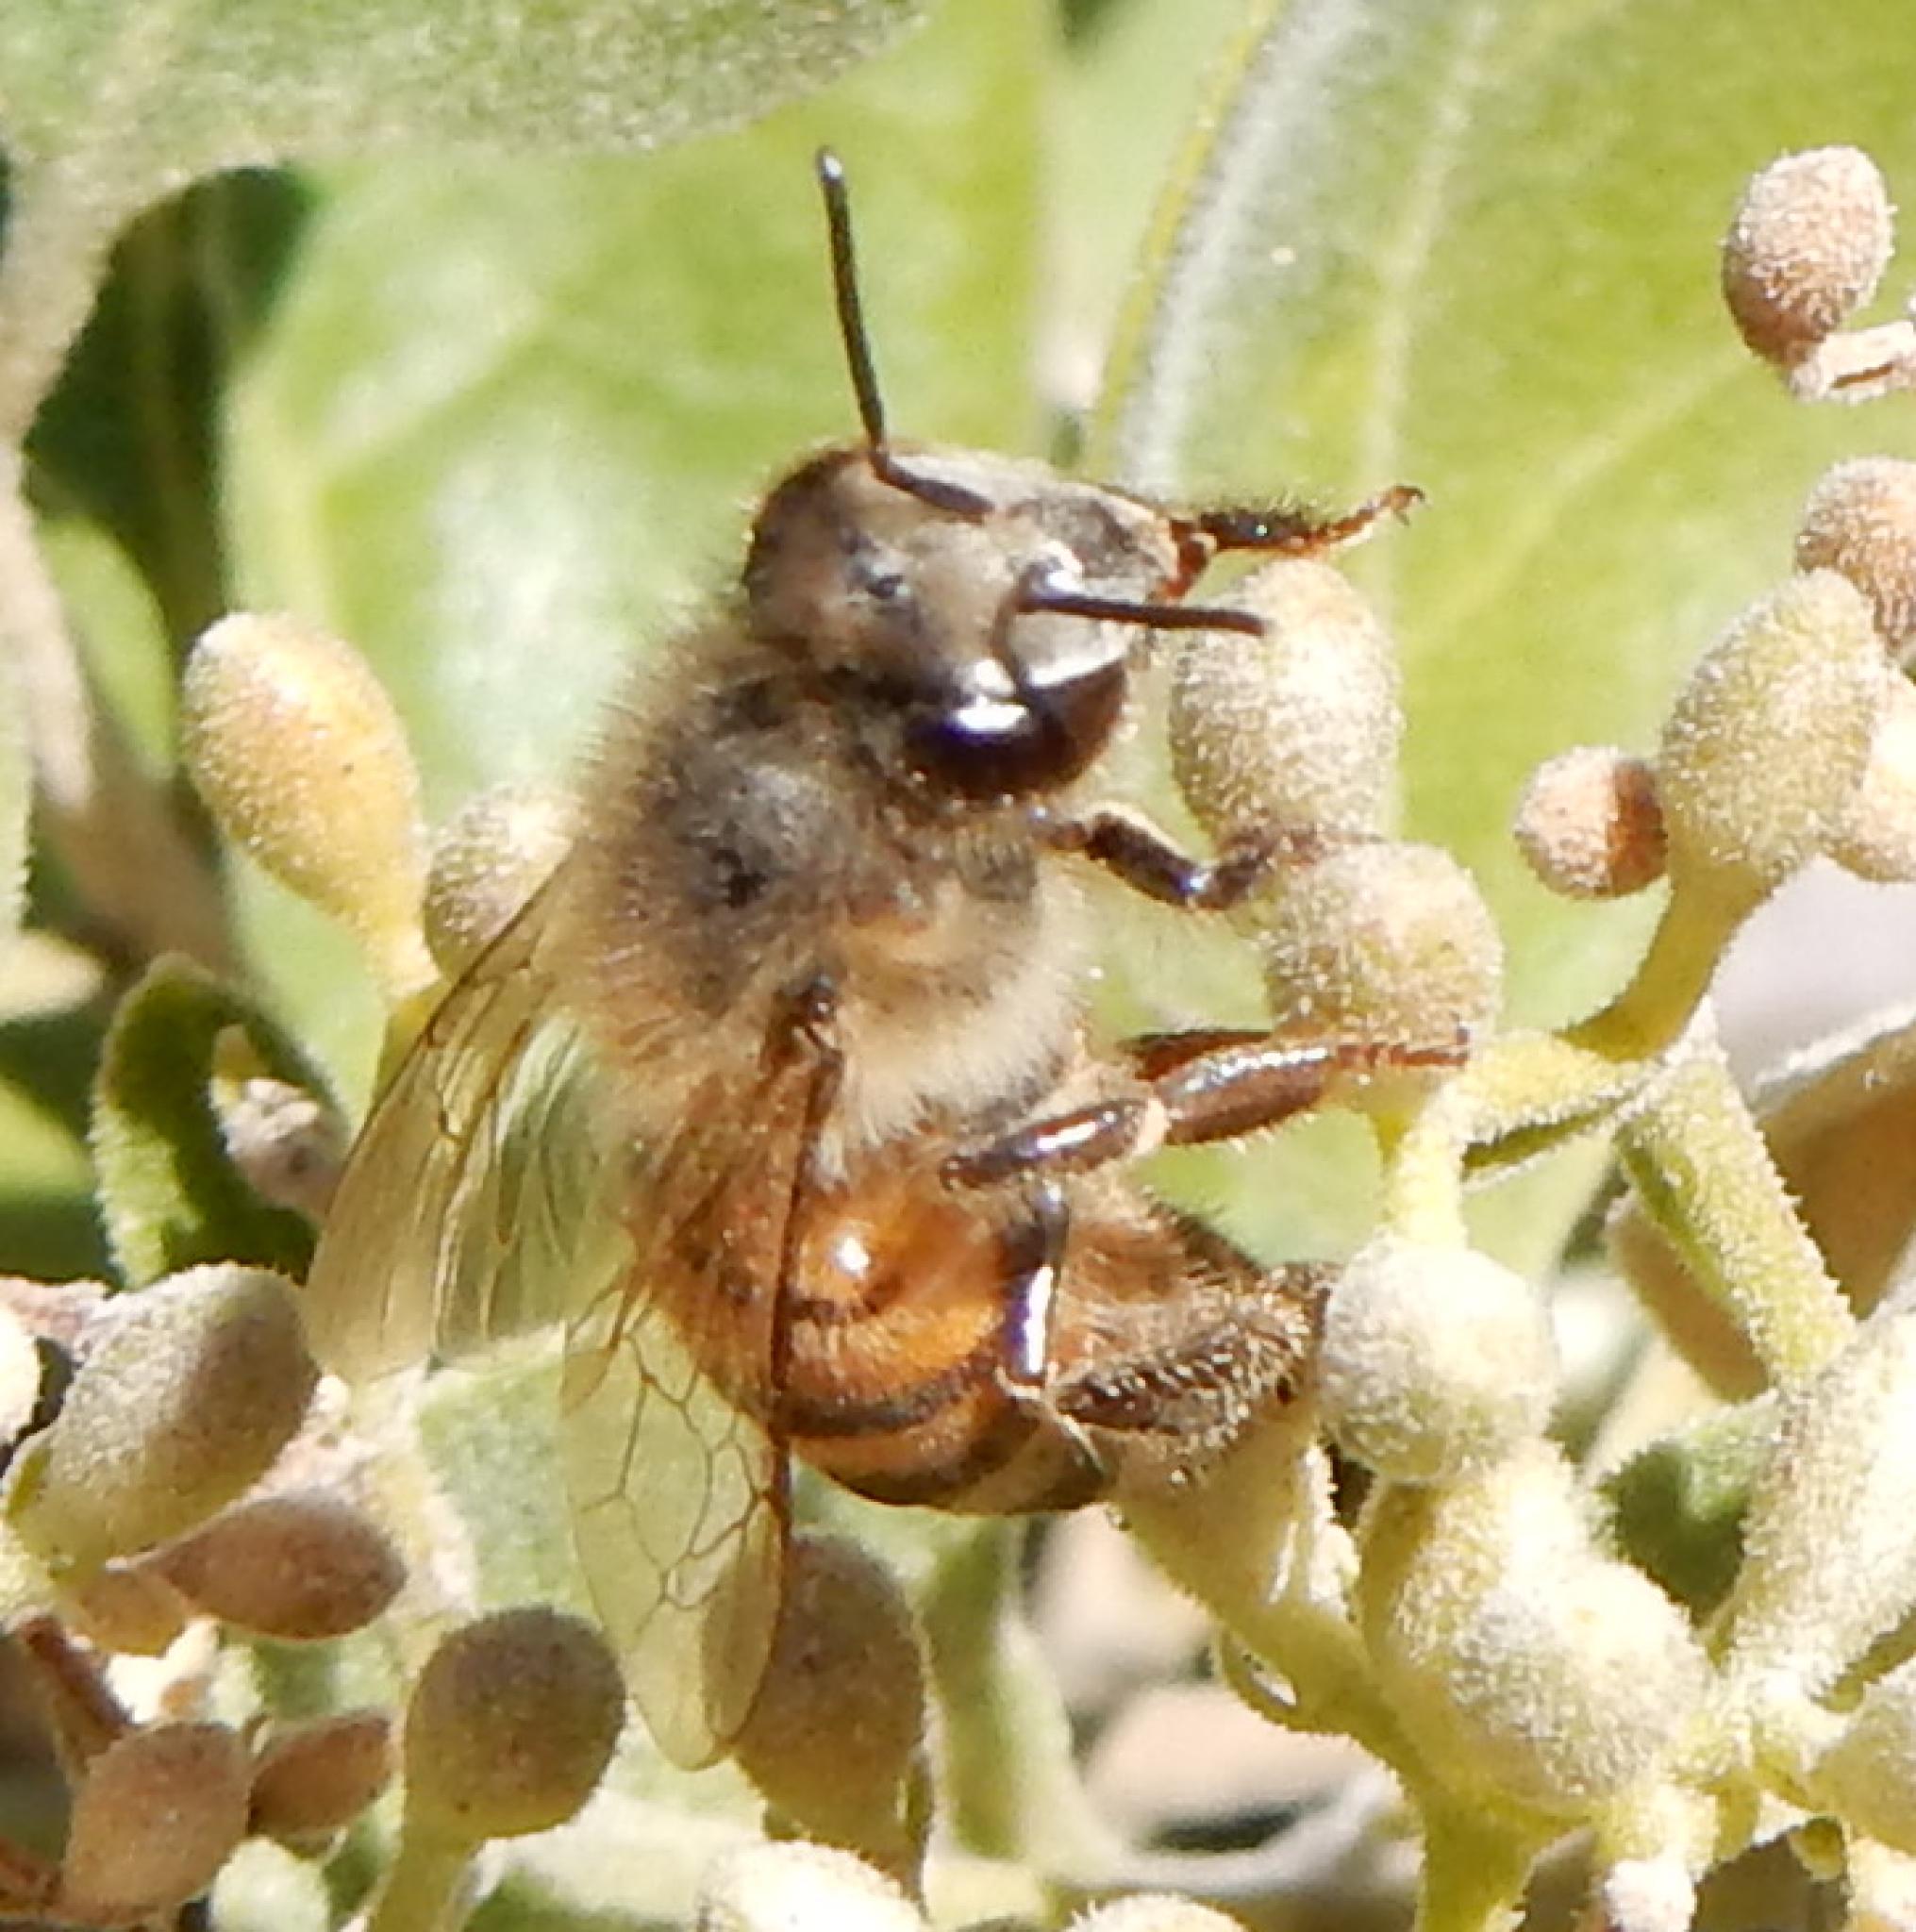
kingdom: Animalia
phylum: Arthropoda
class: Insecta
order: Hymenoptera
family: Apidae
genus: Apis
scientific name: Apis mellifera
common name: Honey bee
